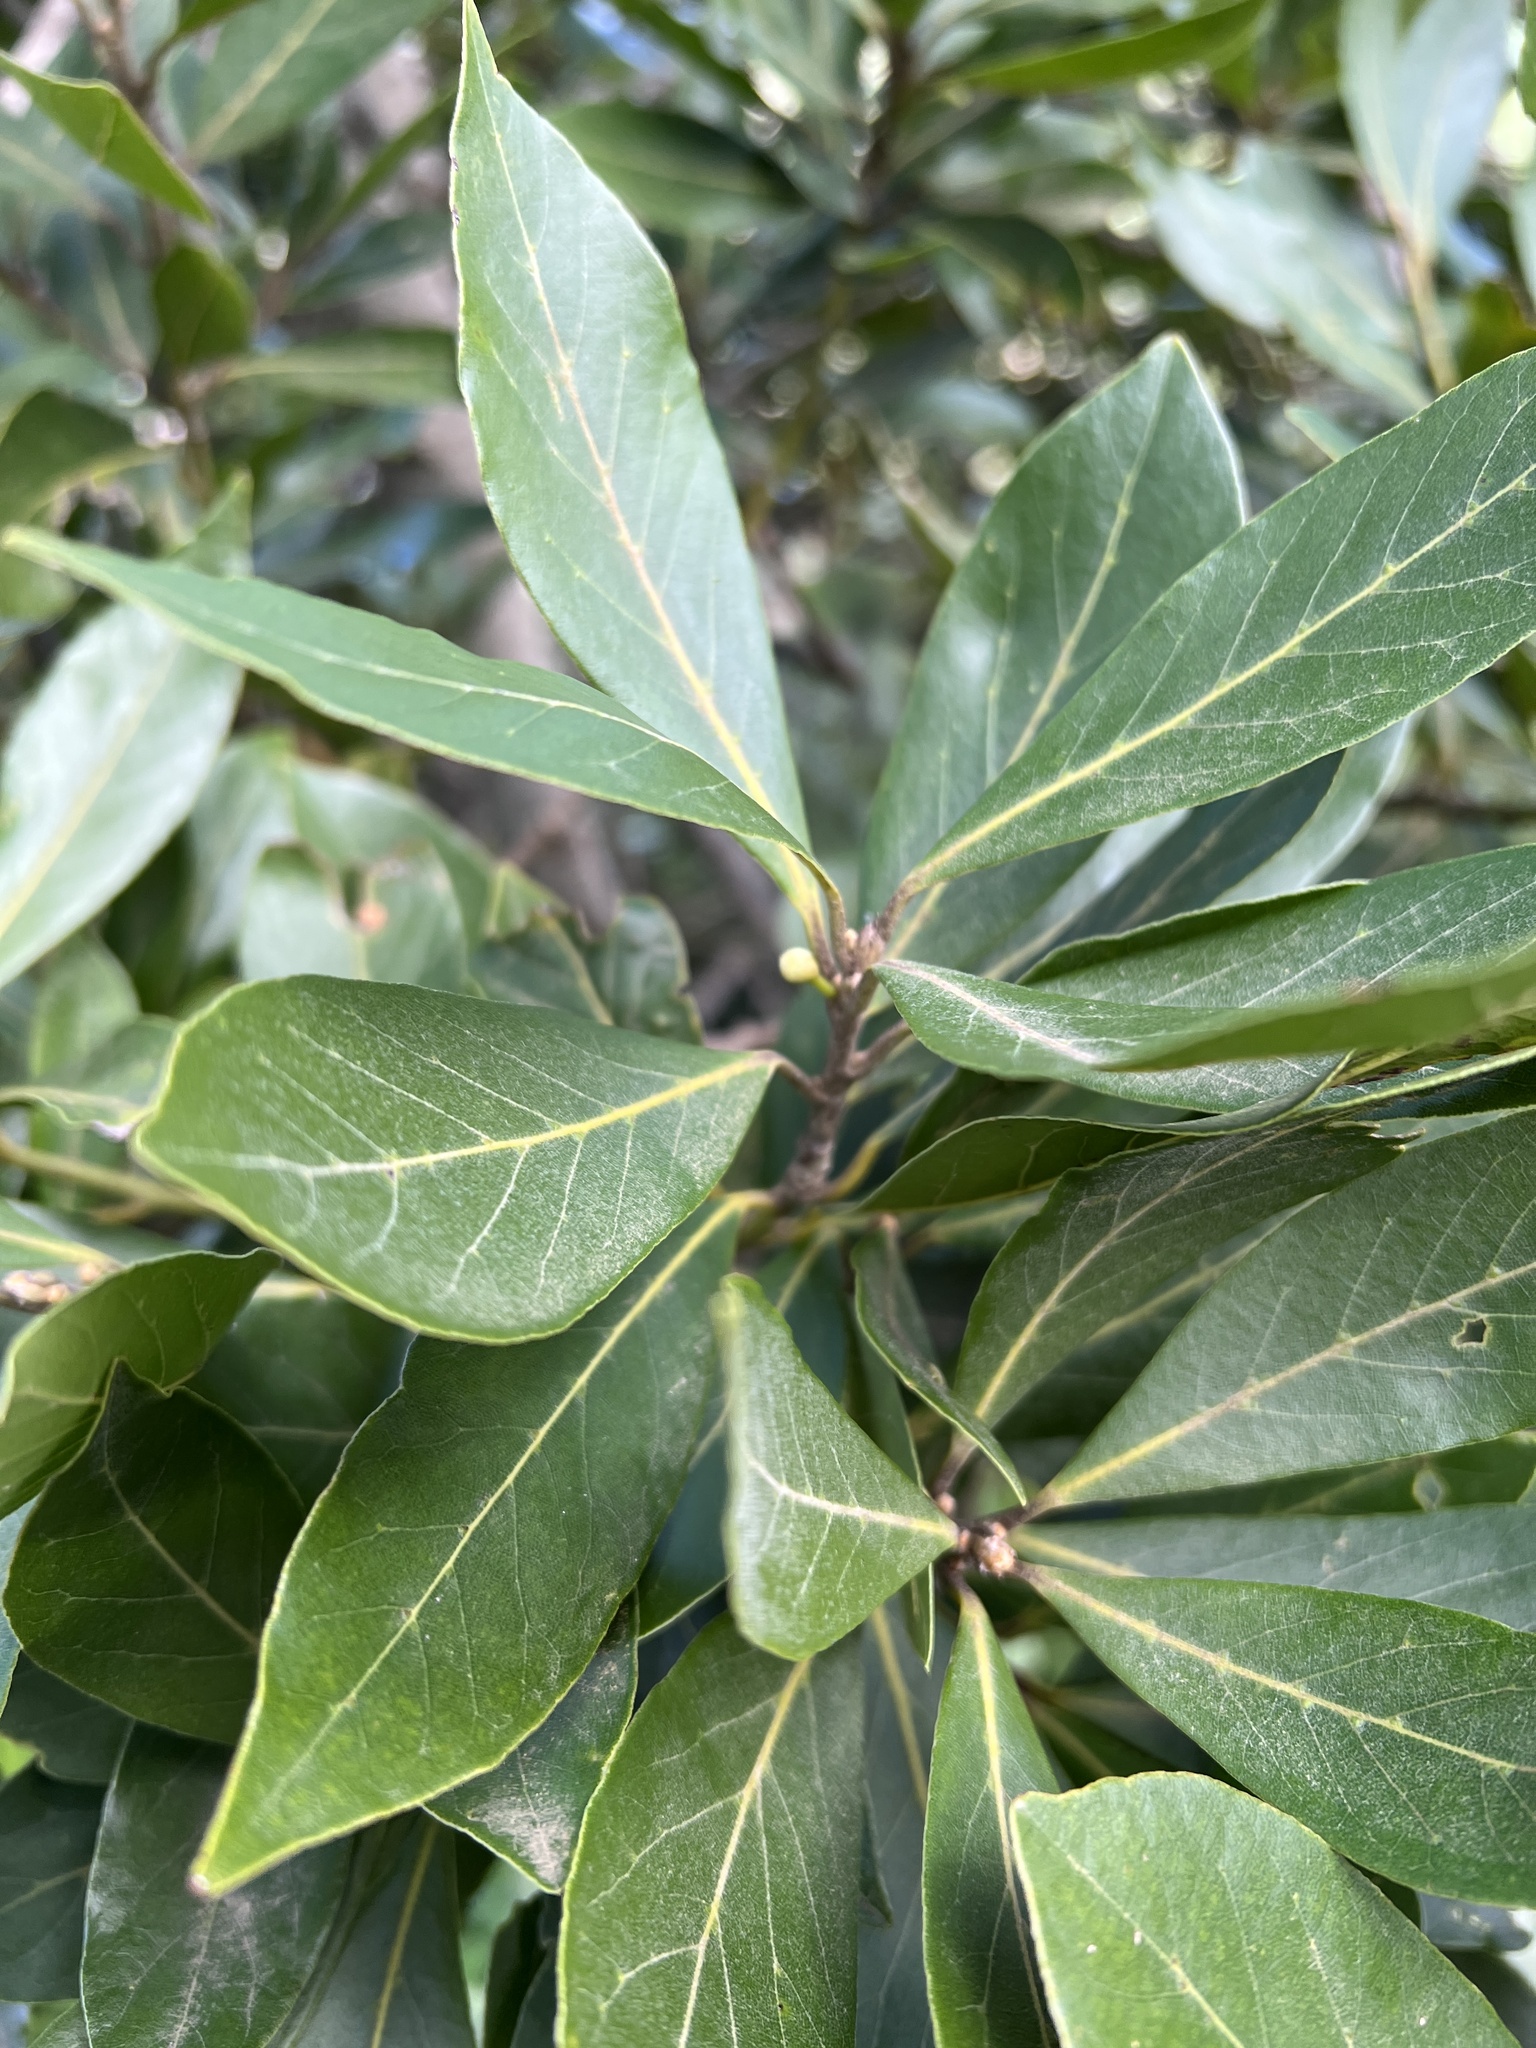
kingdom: Plantae
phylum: Tracheophyta
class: Magnoliopsida
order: Laurales
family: Lauraceae
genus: Laurus
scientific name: Laurus novocanariensis
